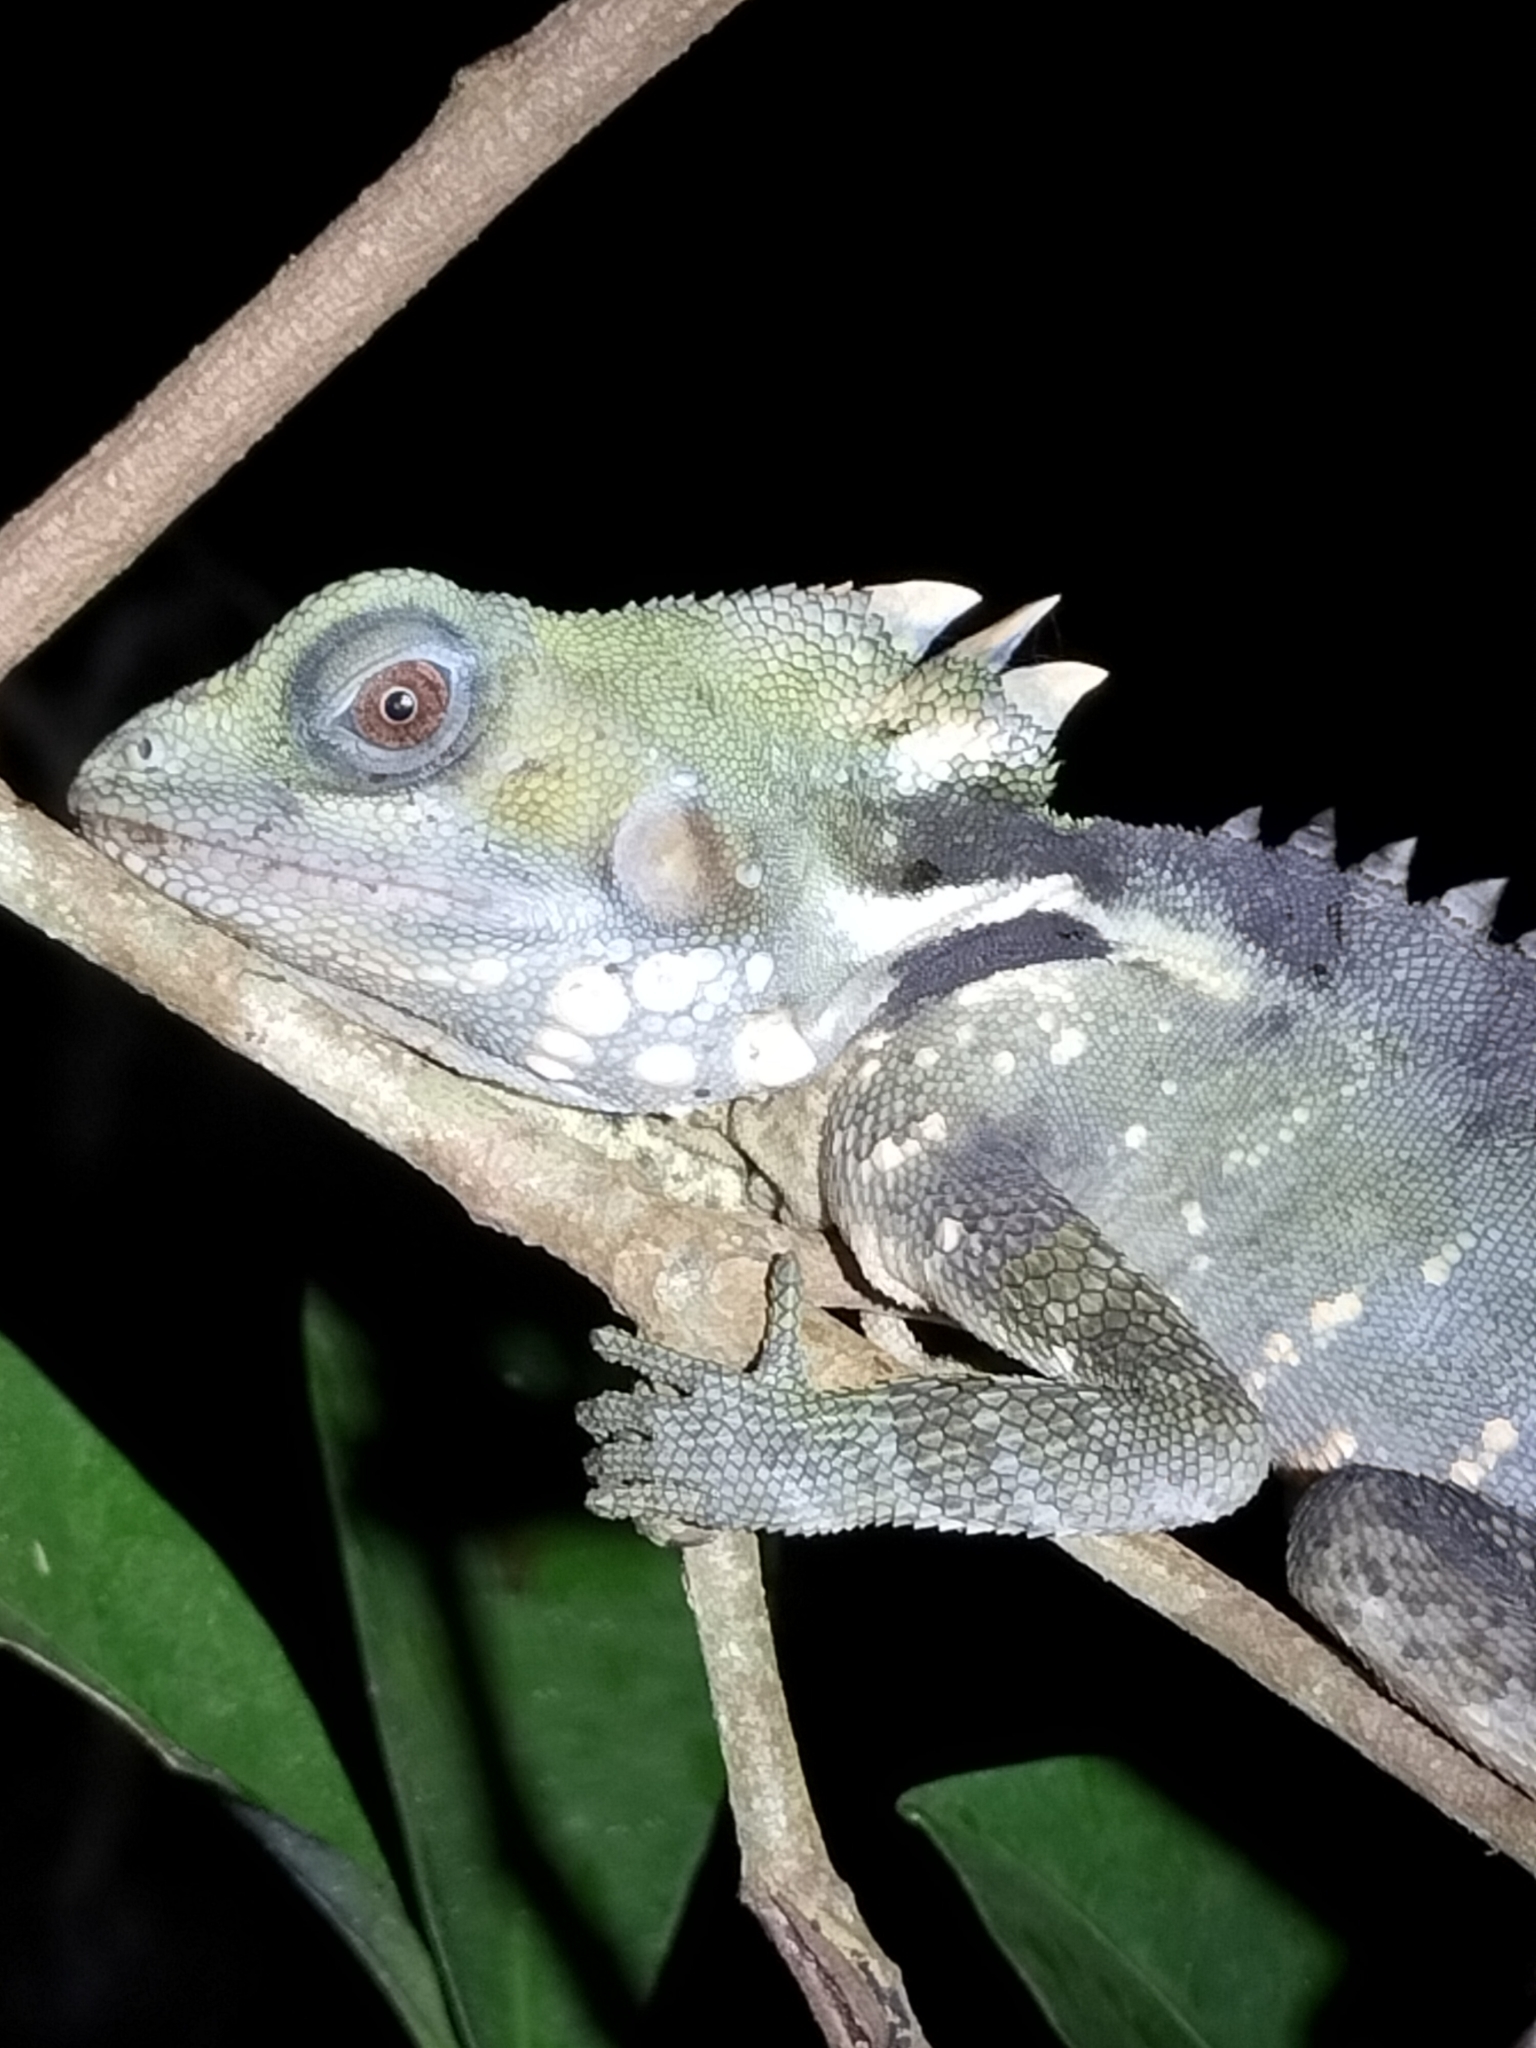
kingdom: Animalia
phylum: Chordata
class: Squamata
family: Agamidae
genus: Lophosaurus
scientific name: Lophosaurus boydii
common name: Boyd's forest dragon
